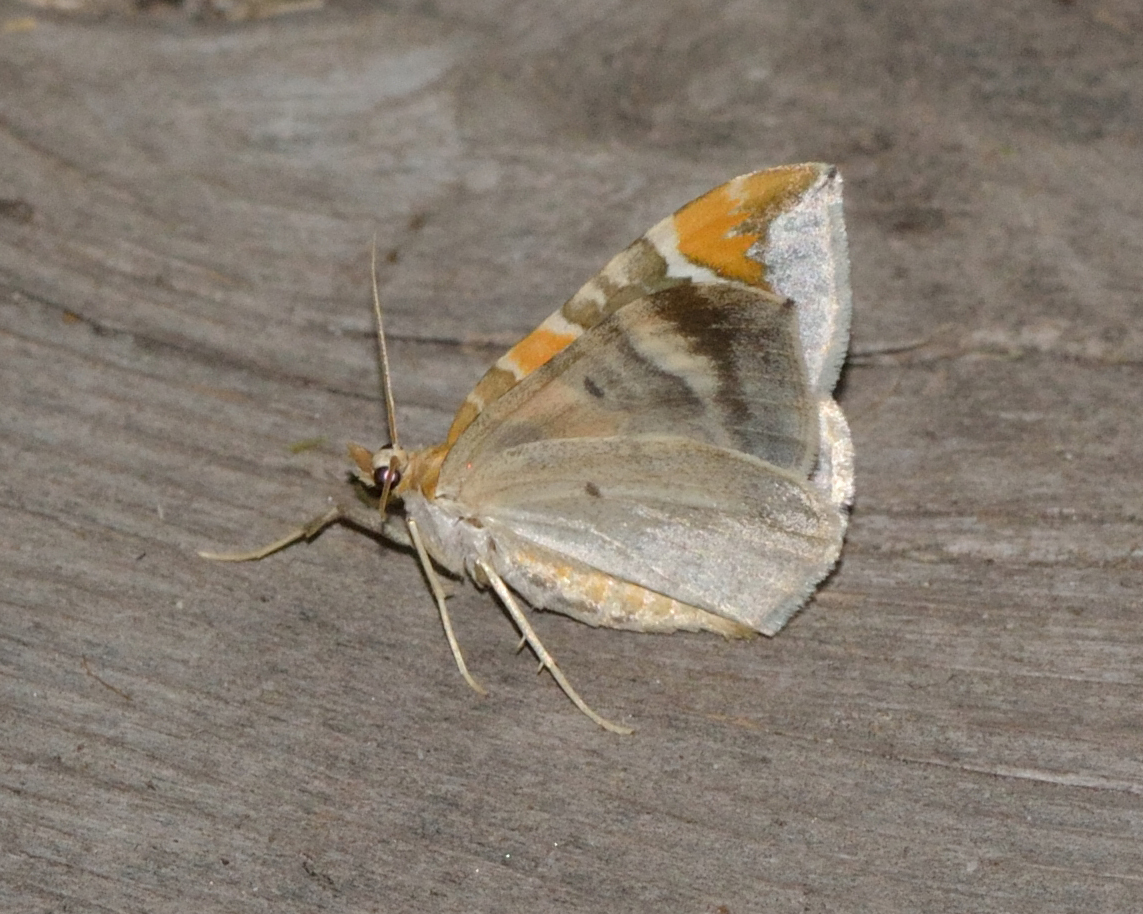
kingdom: Animalia
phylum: Arthropoda
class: Insecta
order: Lepidoptera
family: Geometridae
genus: Eulithis
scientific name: Eulithis pyropata
